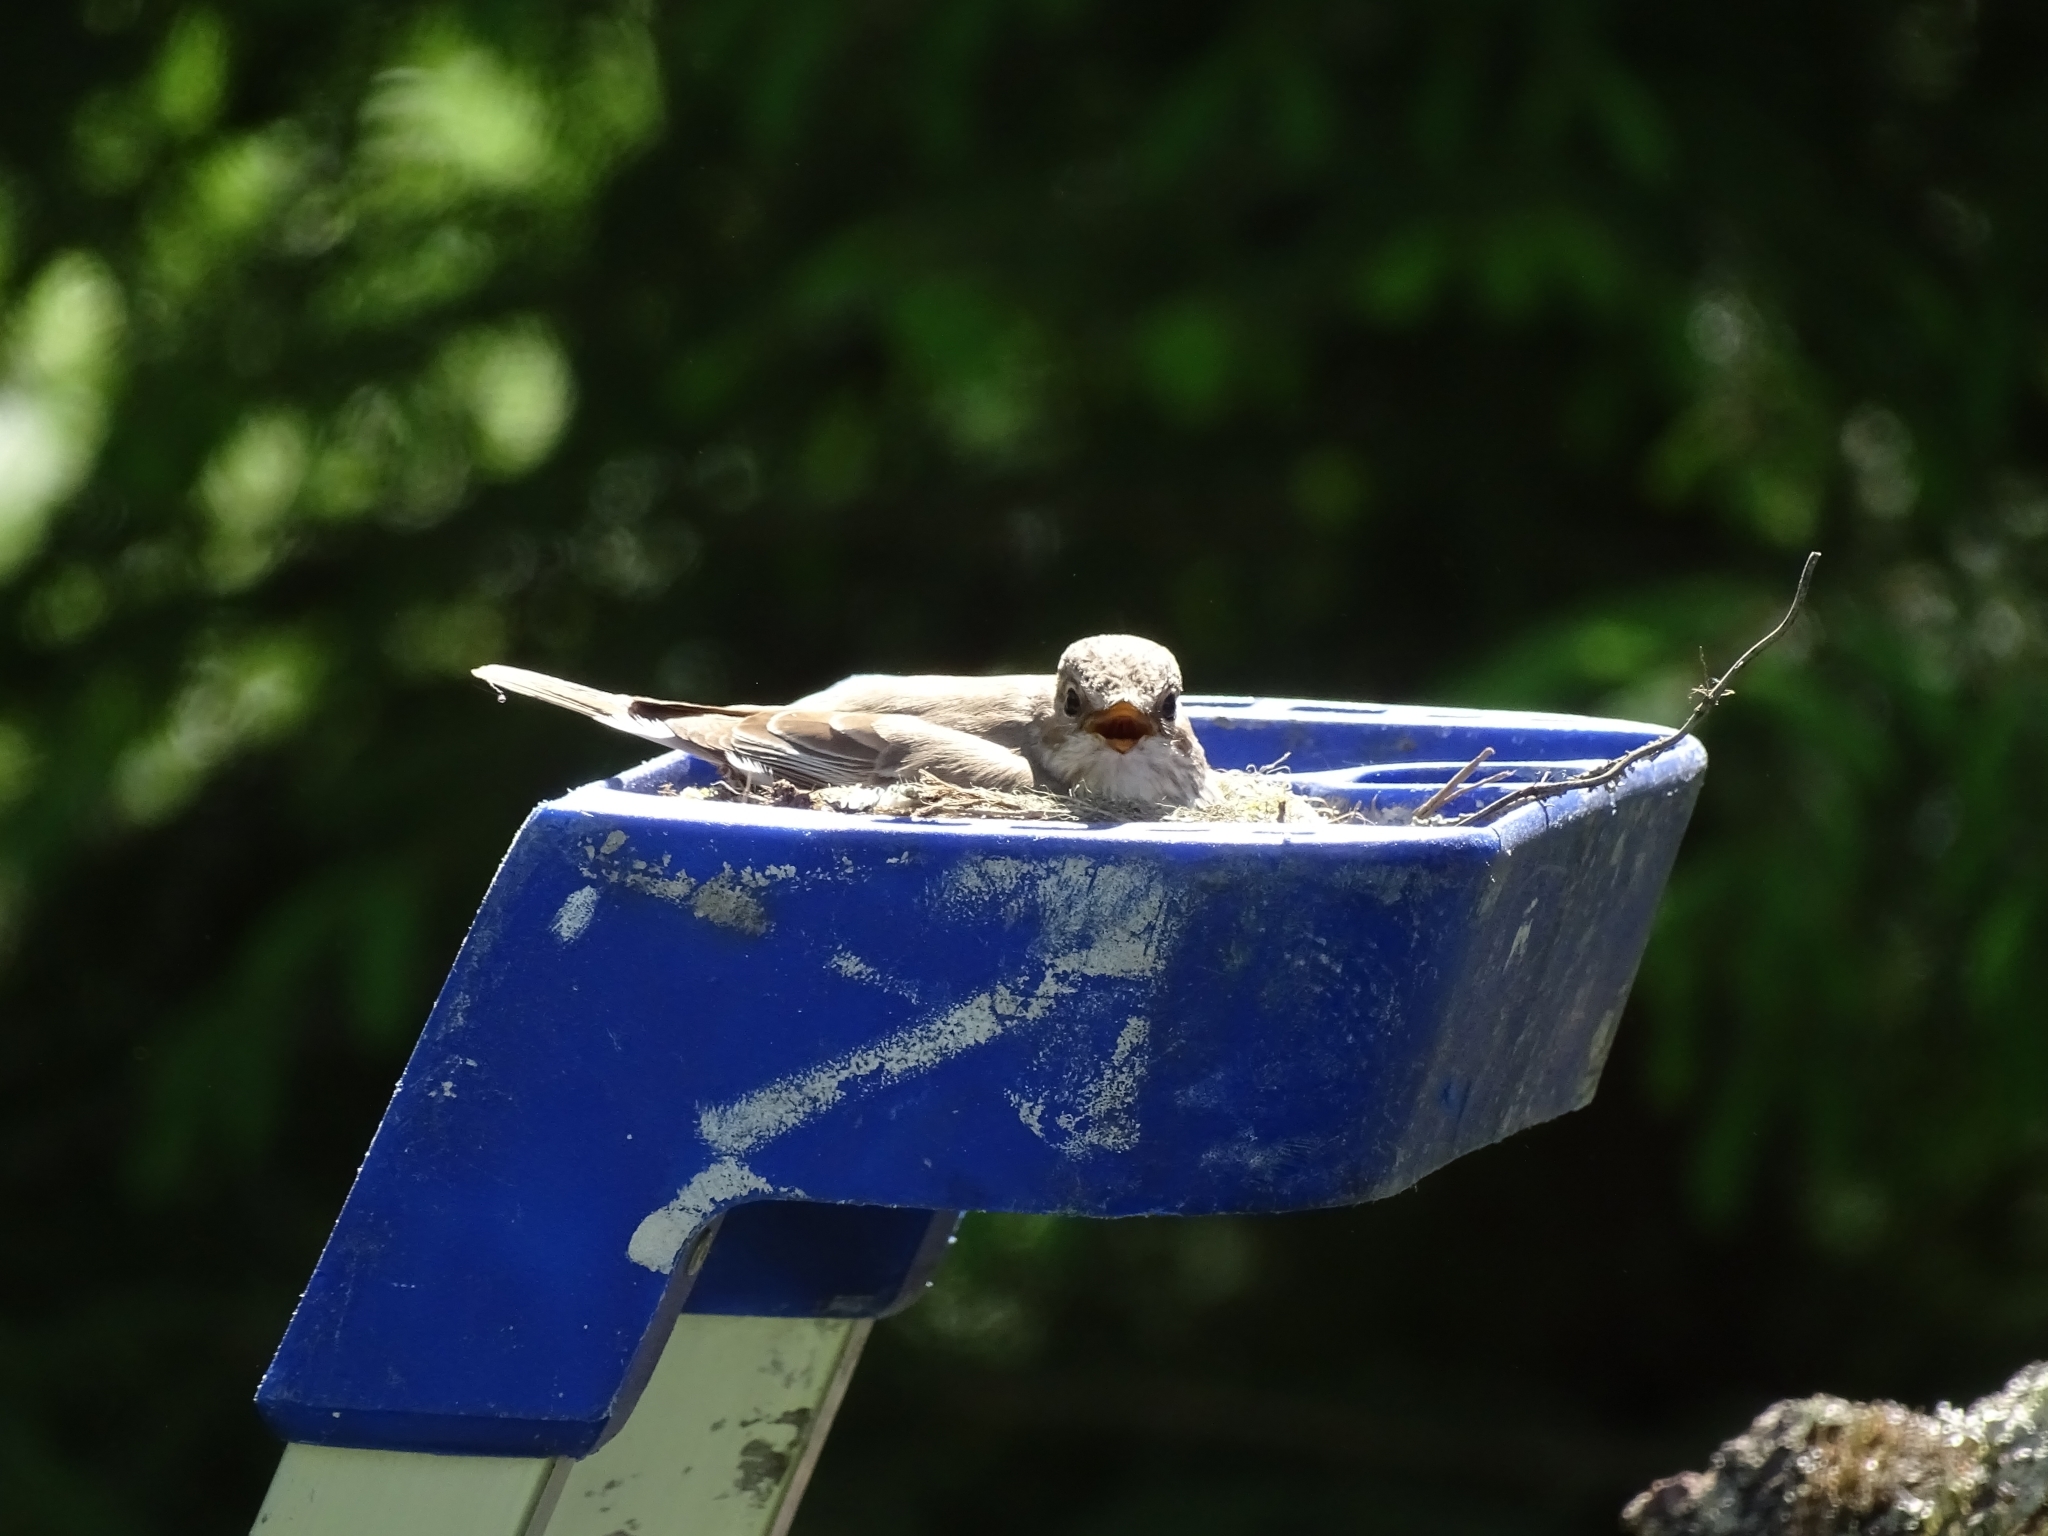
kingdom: Animalia
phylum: Chordata
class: Aves
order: Passeriformes
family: Muscicapidae
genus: Muscicapa
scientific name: Muscicapa striata
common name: Spotted flycatcher
